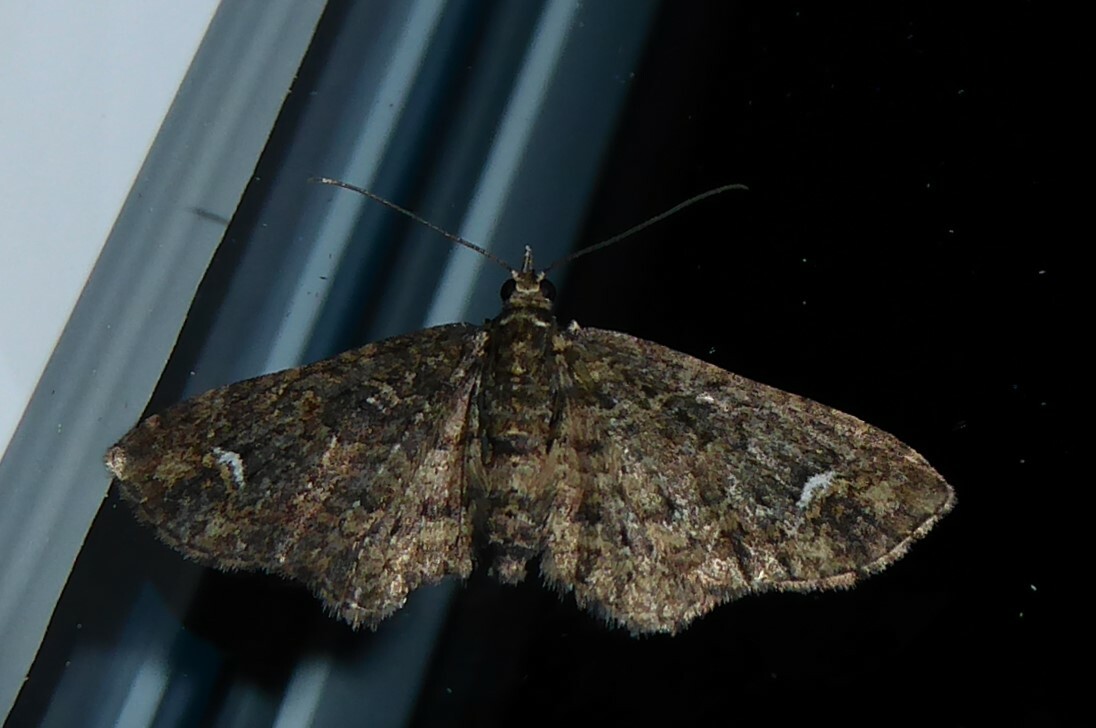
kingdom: Animalia
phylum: Arthropoda
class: Insecta
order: Lepidoptera
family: Geometridae
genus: Pasiphilodes
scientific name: Pasiphilodes testulata
